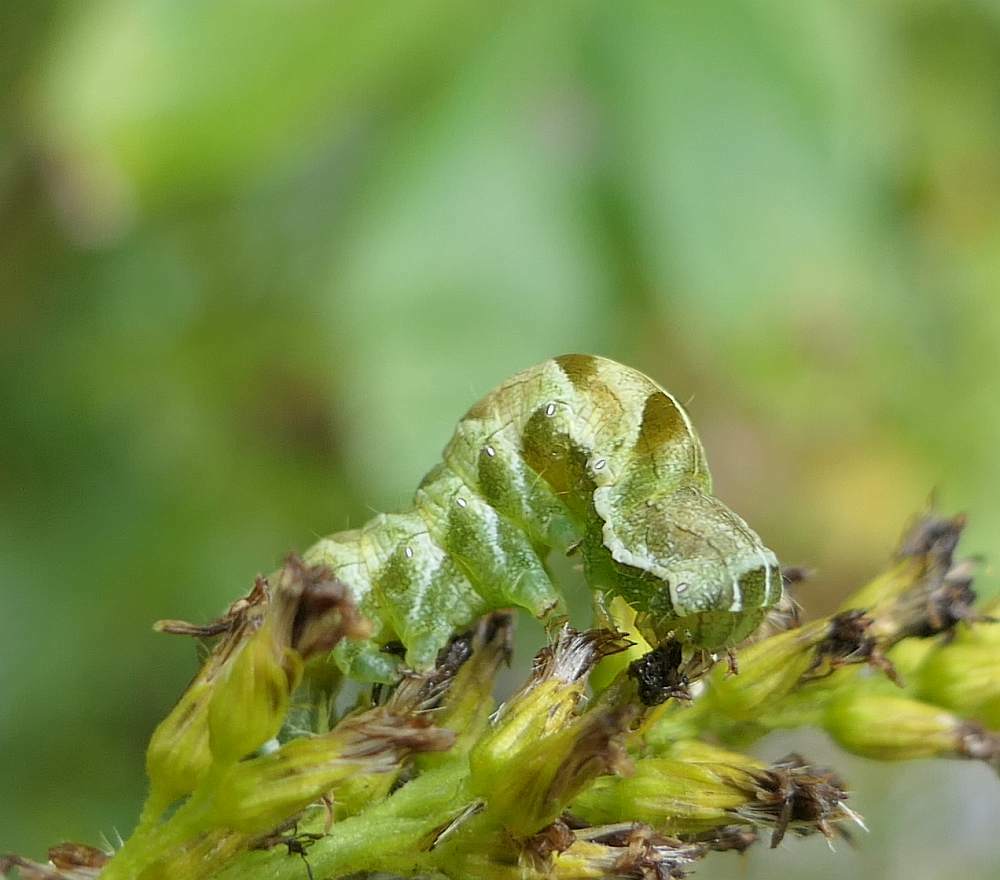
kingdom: Animalia
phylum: Arthropoda
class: Insecta
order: Lepidoptera
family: Noctuidae
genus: Melanchra
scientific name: Melanchra adjuncta
